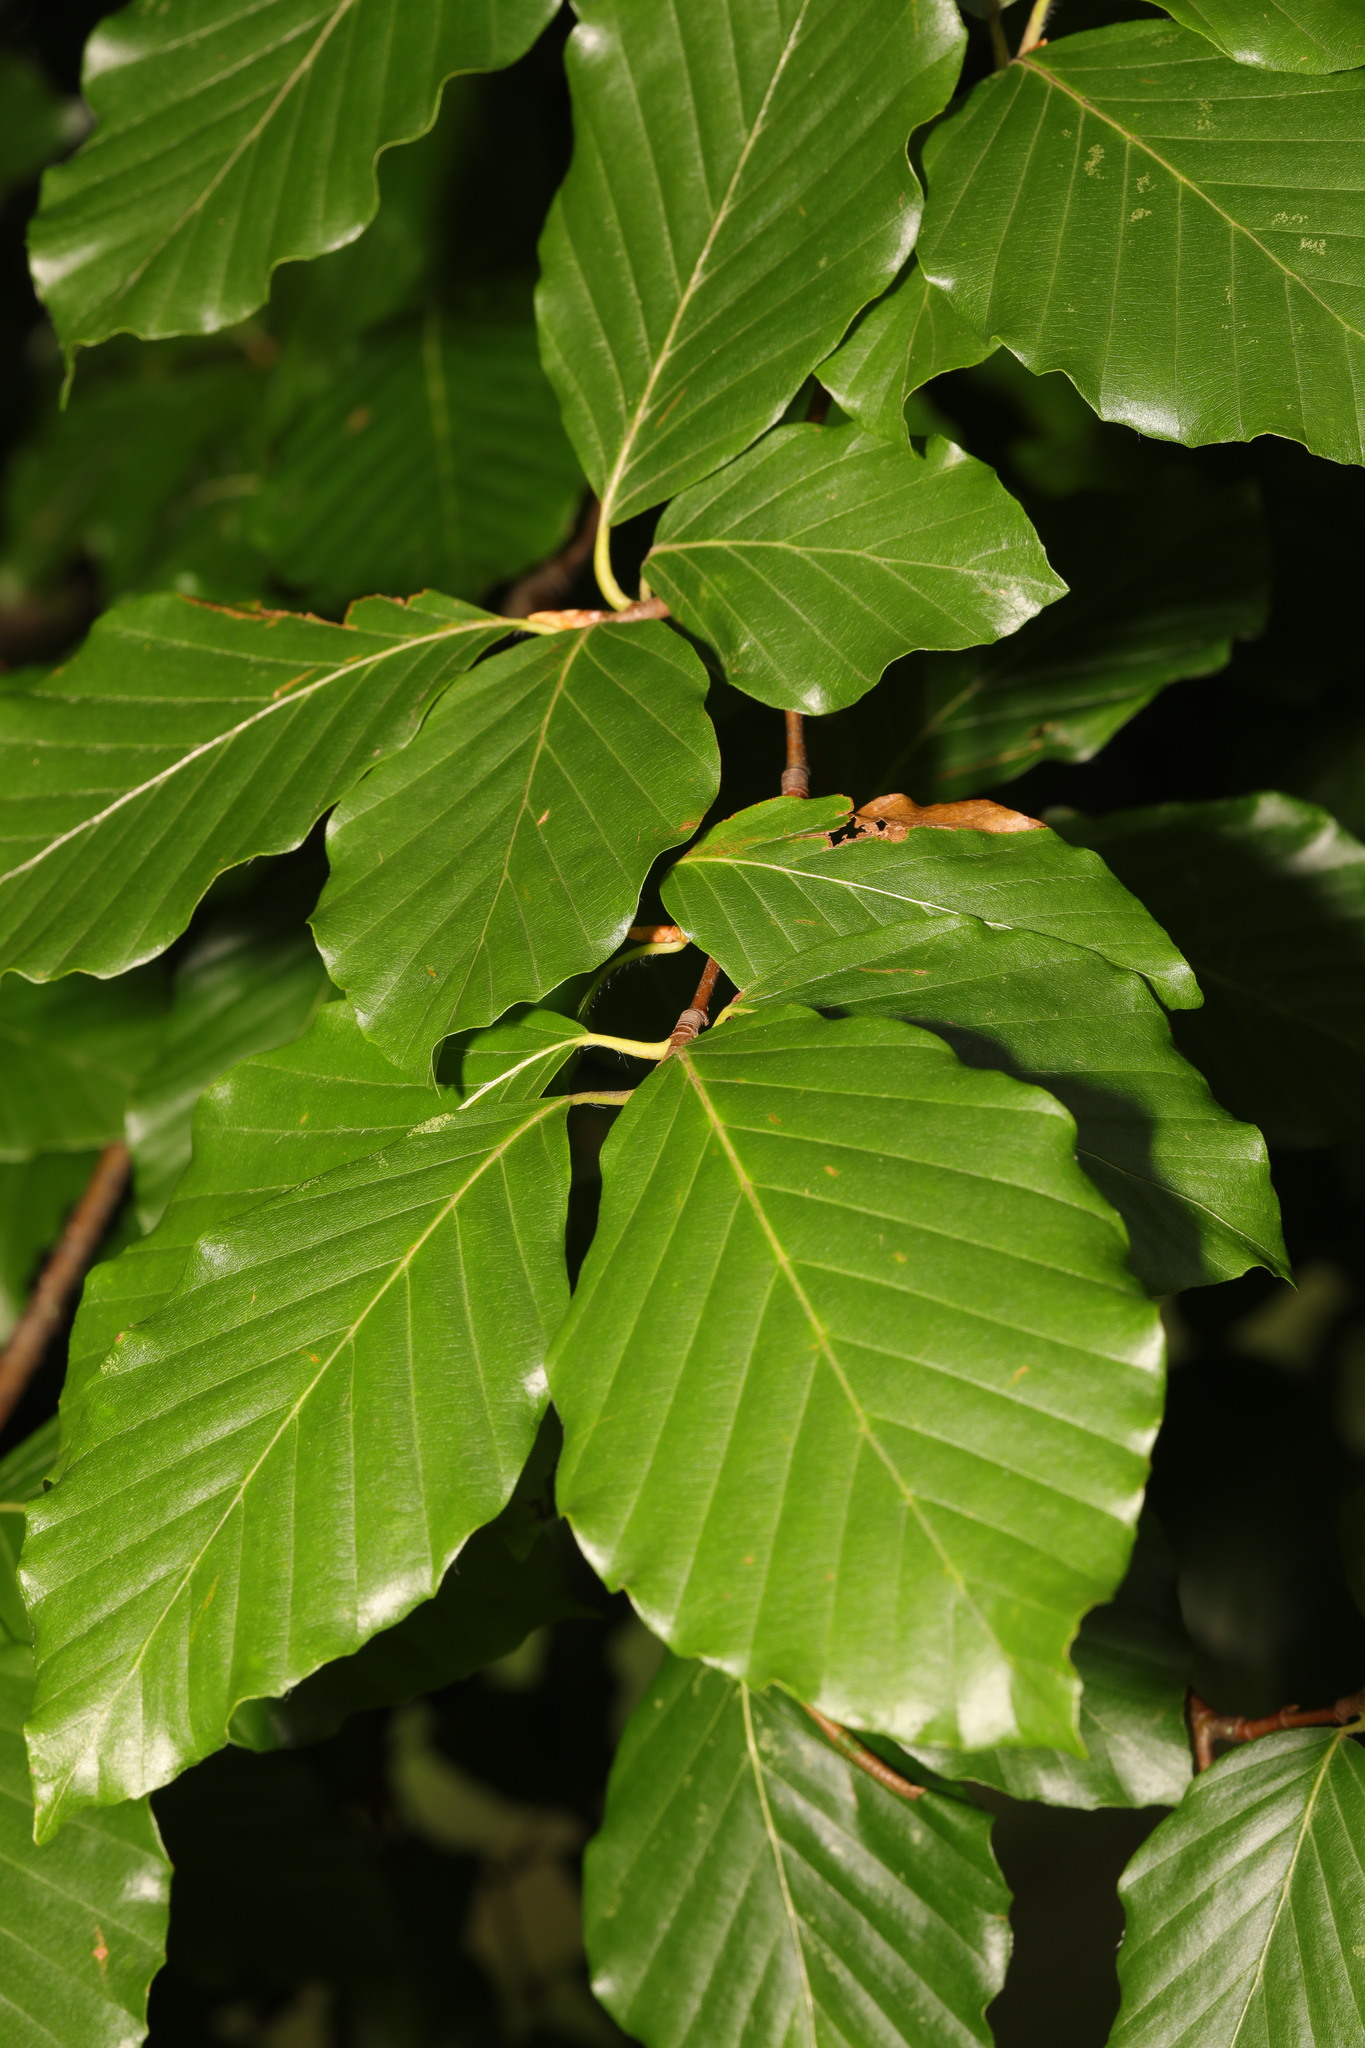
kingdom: Plantae
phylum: Tracheophyta
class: Magnoliopsida
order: Fagales
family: Fagaceae
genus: Fagus
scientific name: Fagus sylvatica
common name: Beech
